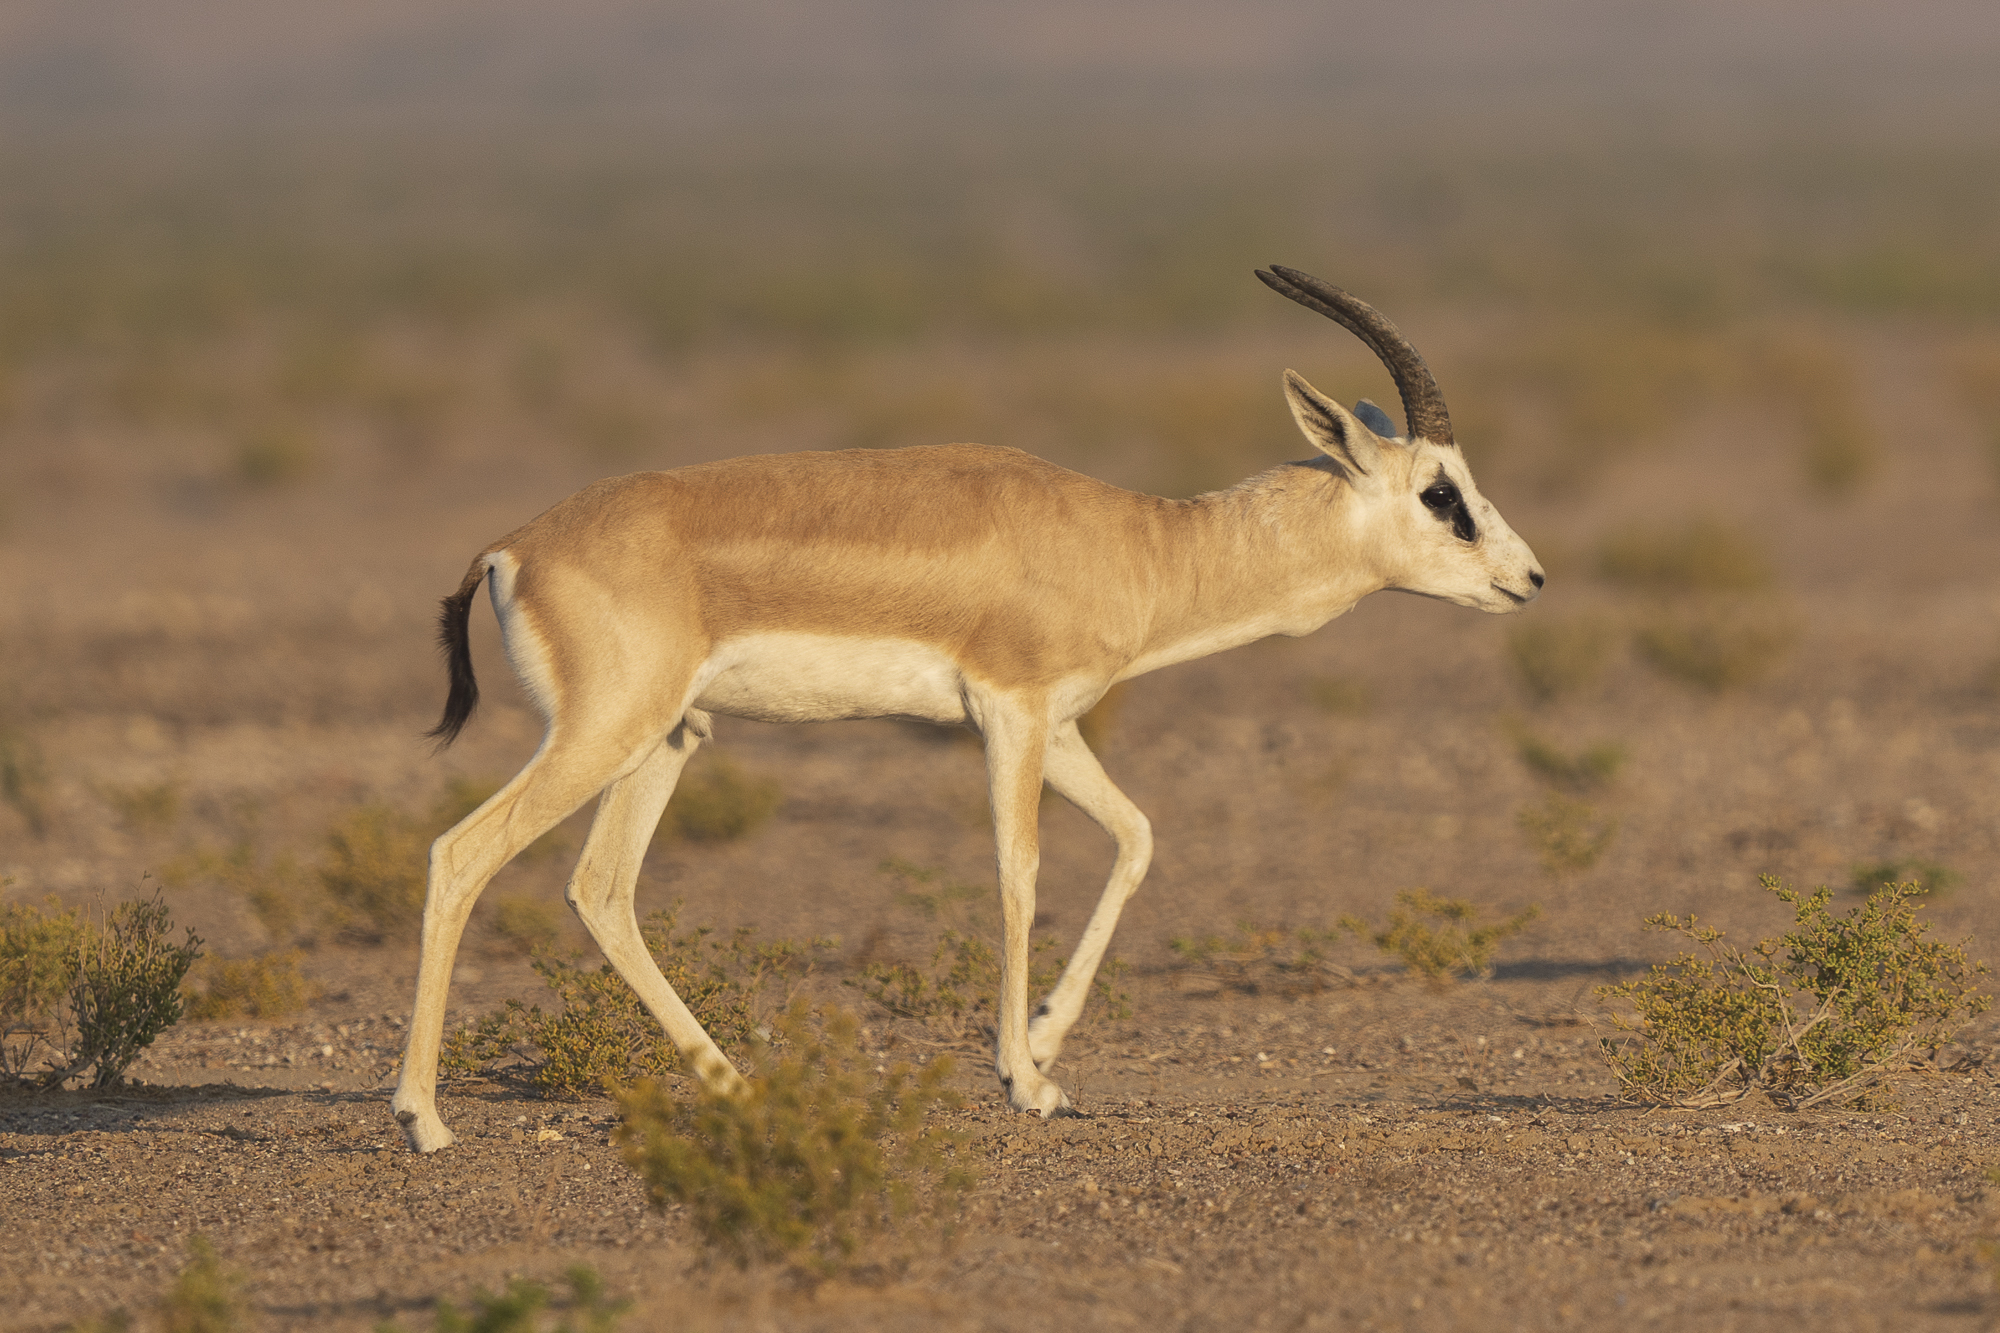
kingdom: Animalia
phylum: Chordata
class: Mammalia
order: Artiodactyla
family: Bovidae
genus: Gazella
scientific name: Gazella marica
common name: Arabian sand gazelle
